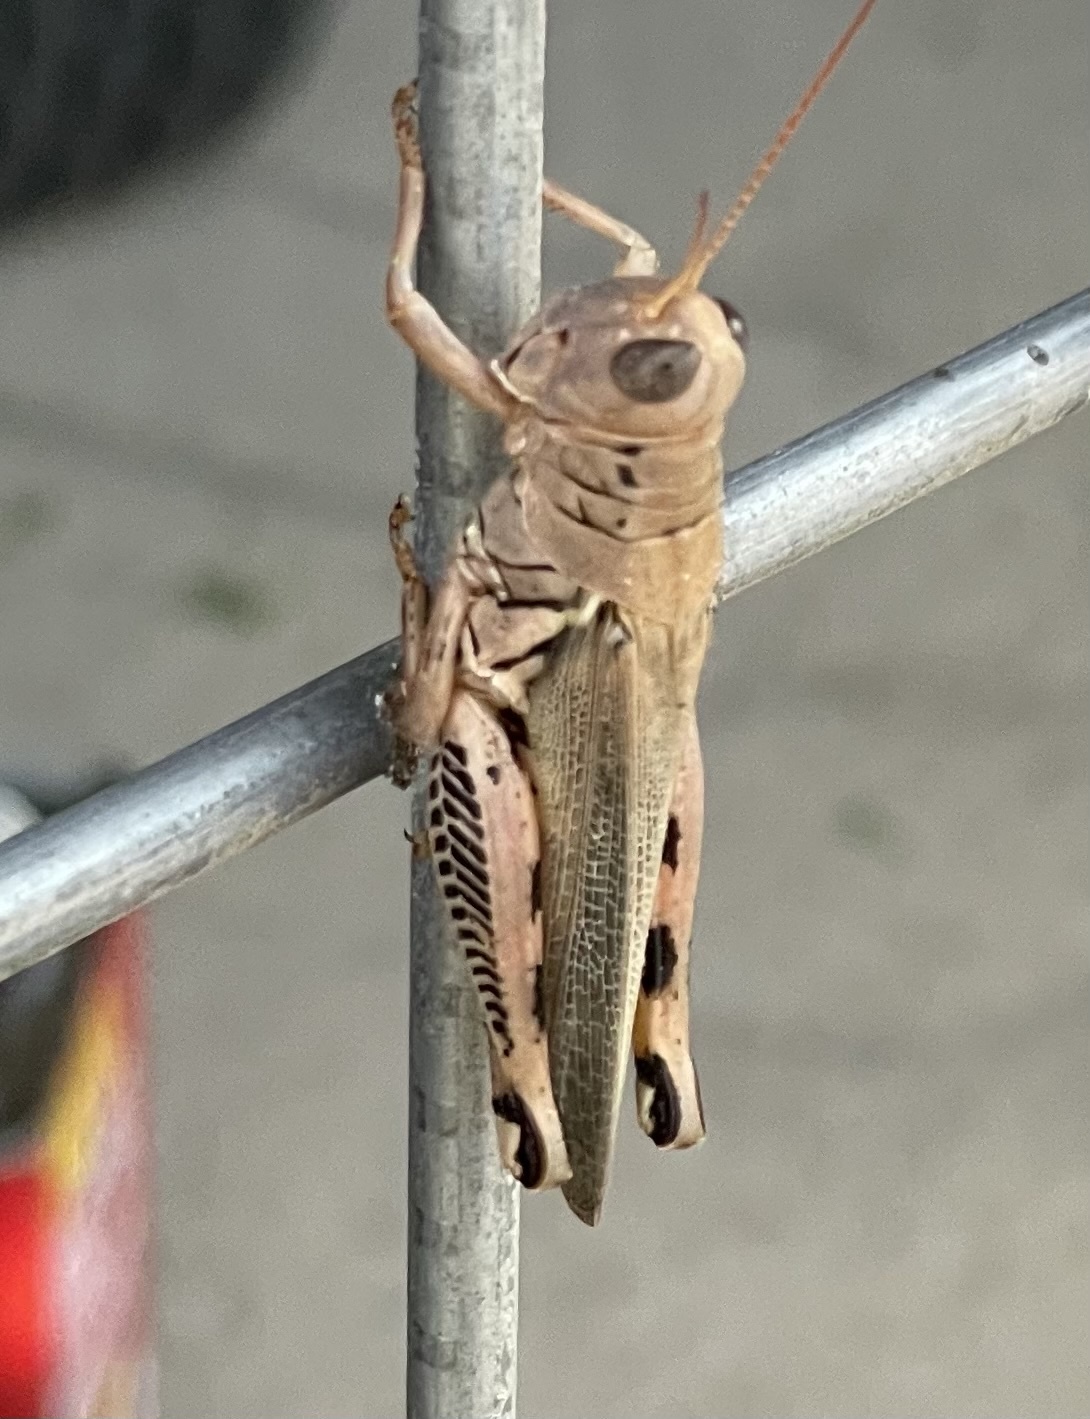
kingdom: Animalia
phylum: Arthropoda
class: Insecta
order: Orthoptera
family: Acrididae
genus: Melanoplus
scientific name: Melanoplus differentialis
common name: Differential grasshopper
